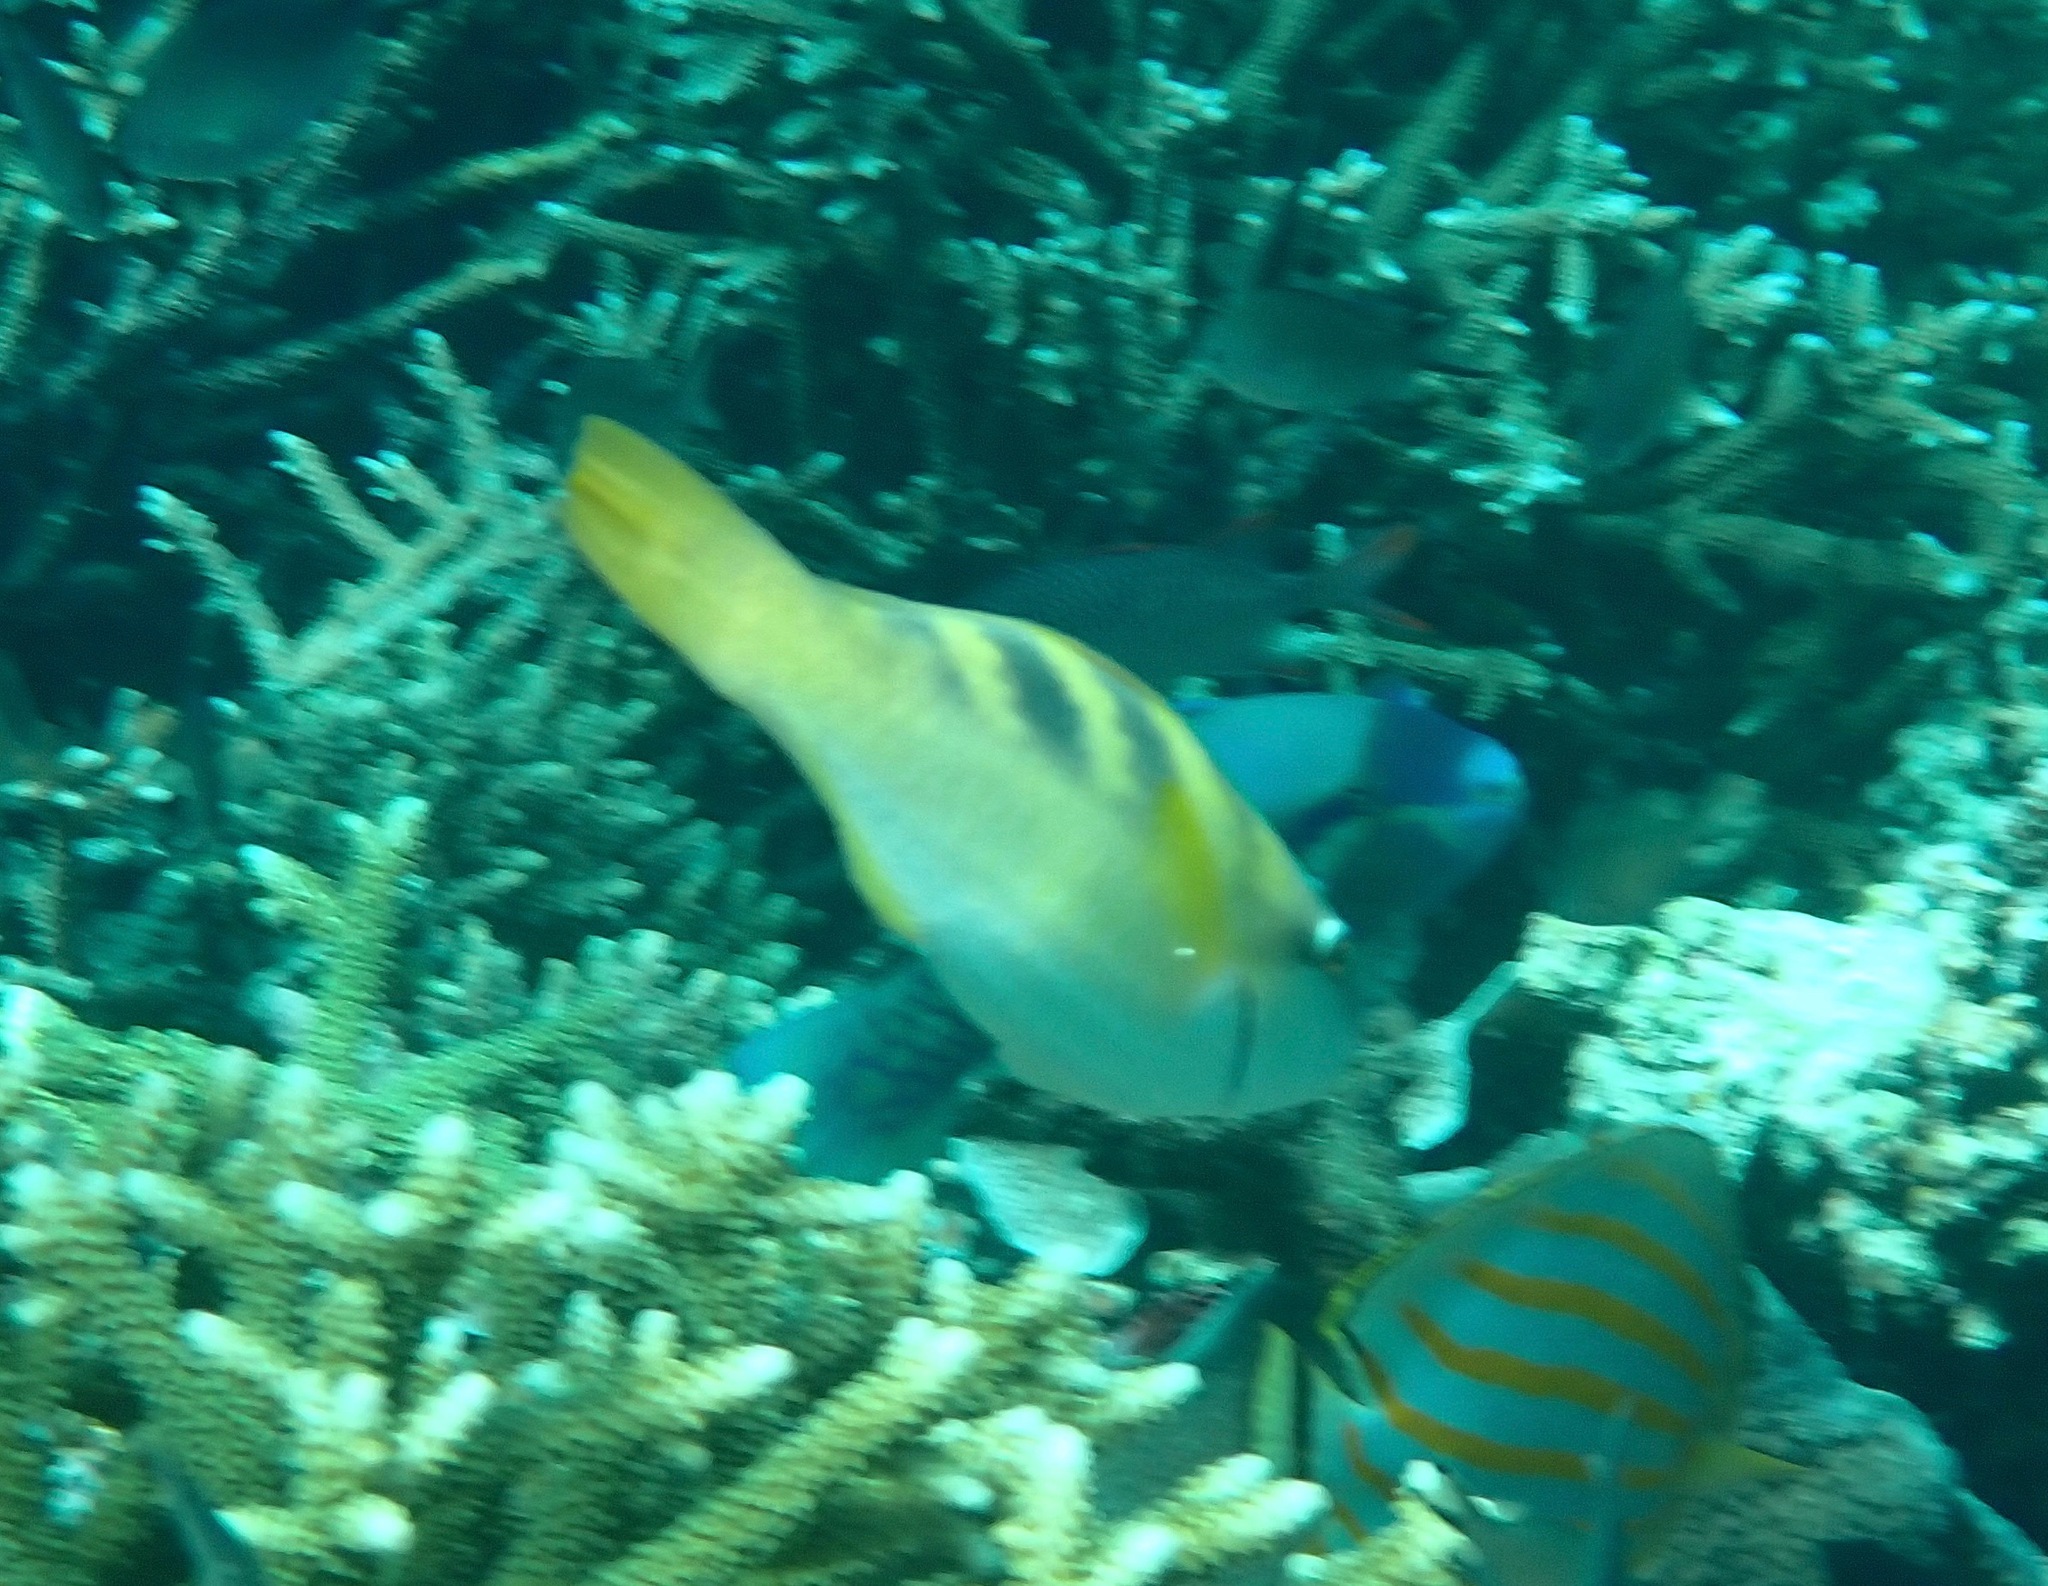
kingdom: Animalia
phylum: Chordata
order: Perciformes
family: Scaridae
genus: Scarus
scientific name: Scarus dimidiatus
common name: Yellowbarred parrotfish
